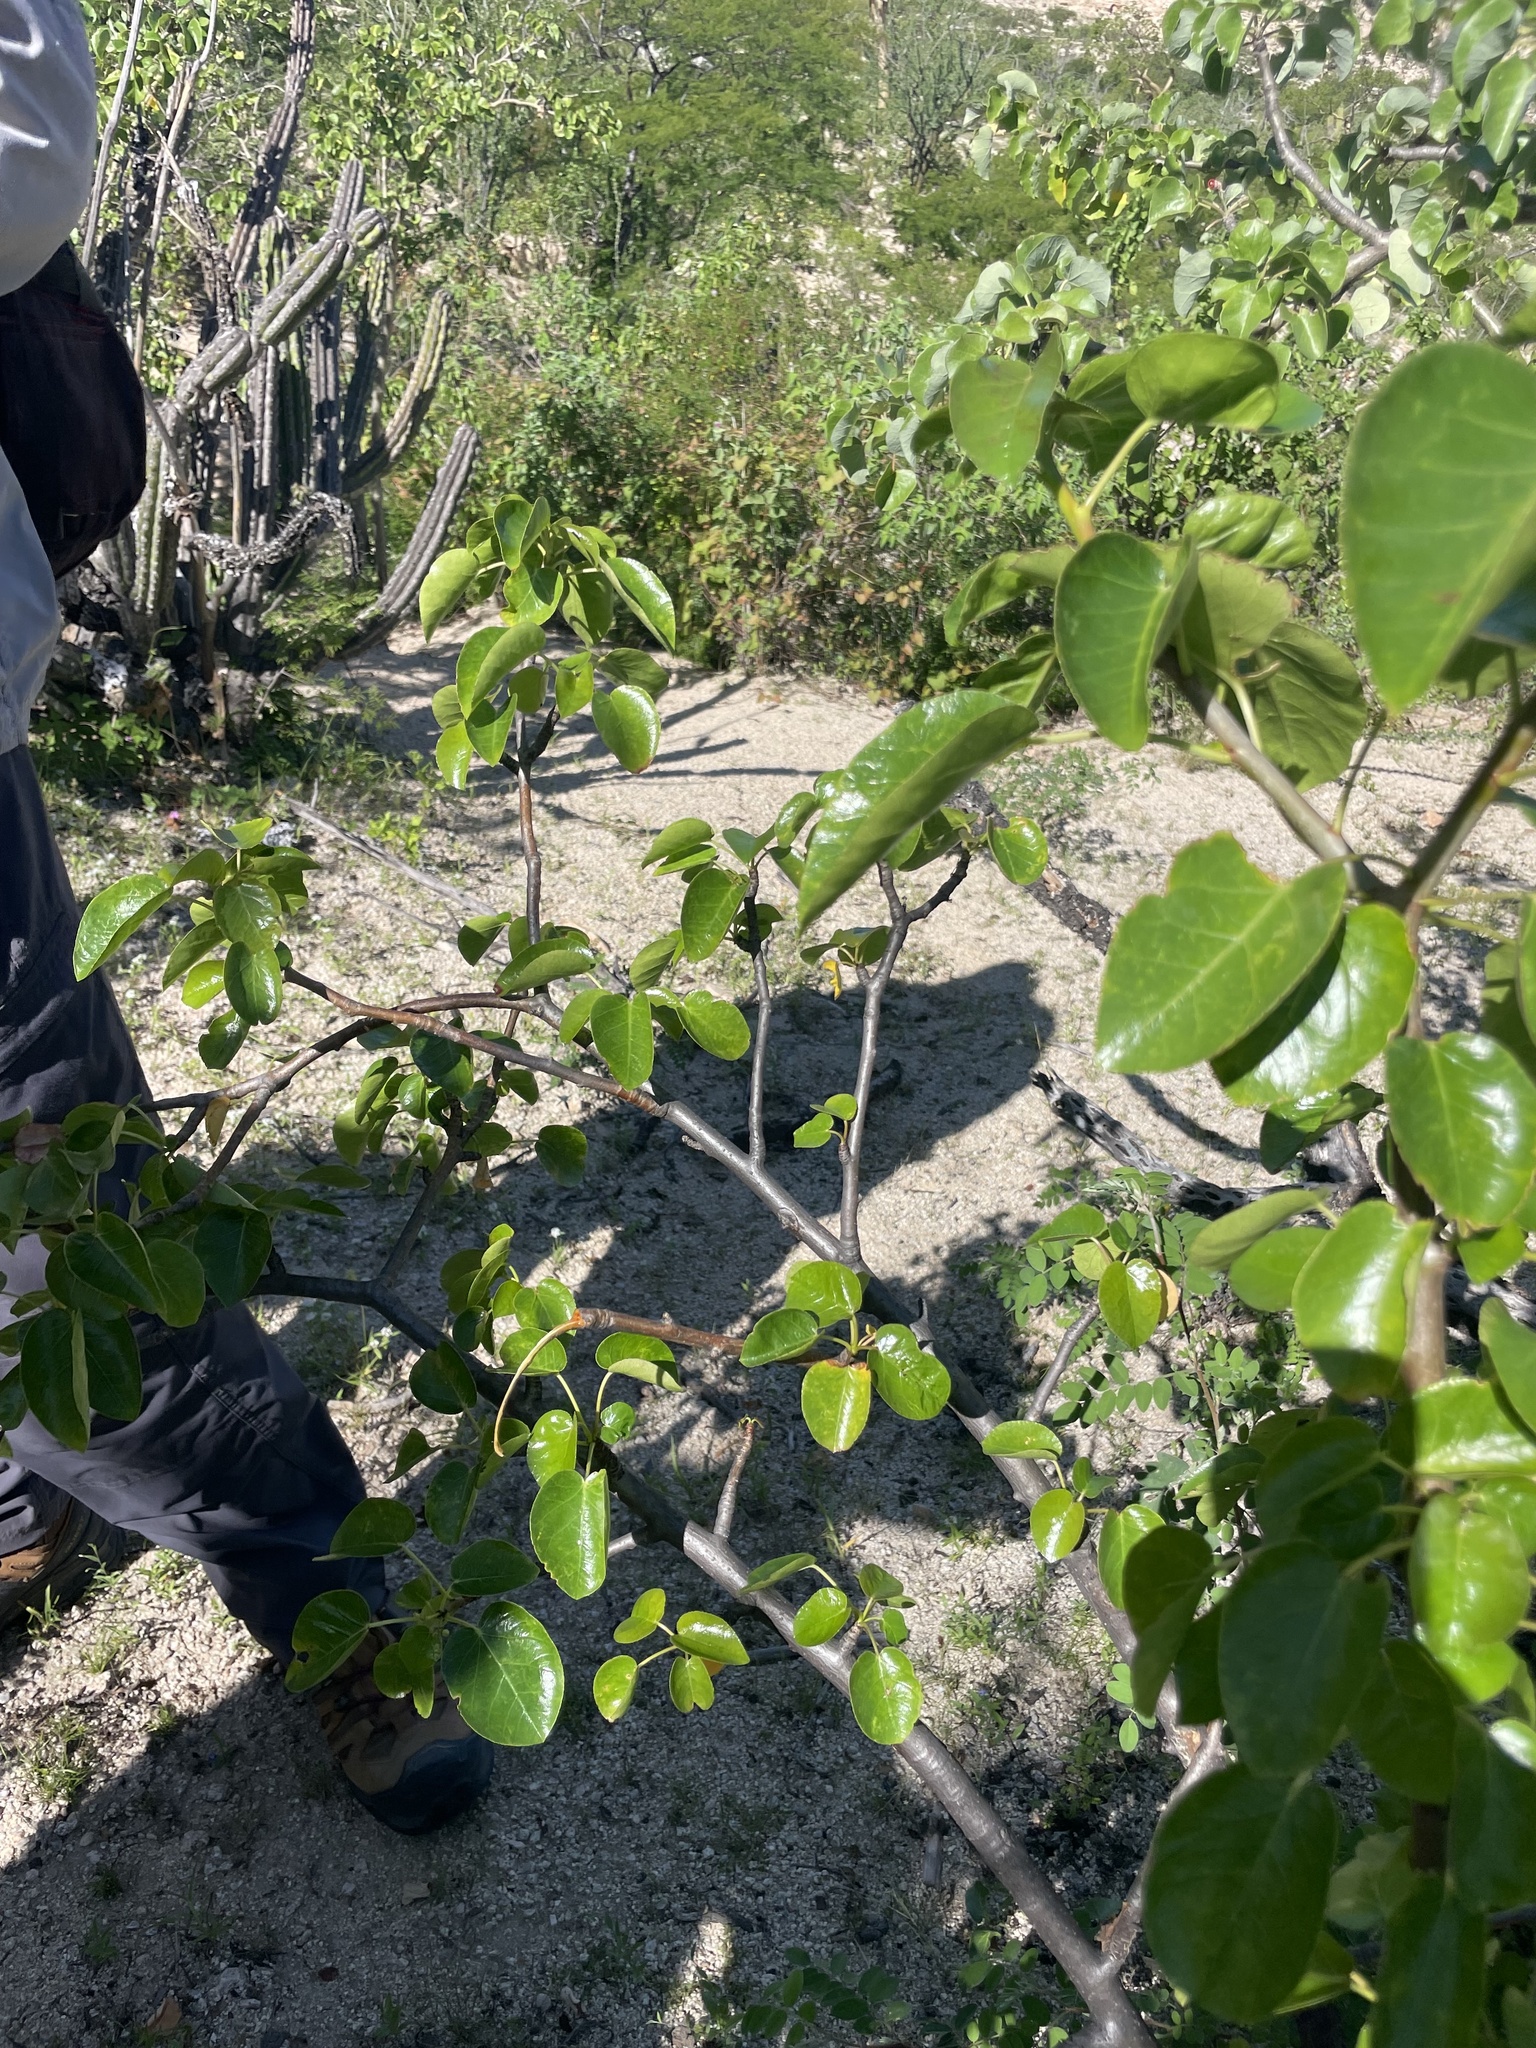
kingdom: Plantae
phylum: Tracheophyta
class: Magnoliopsida
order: Malpighiales
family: Euphorbiaceae
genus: Jatropha
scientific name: Jatropha vernicosa
